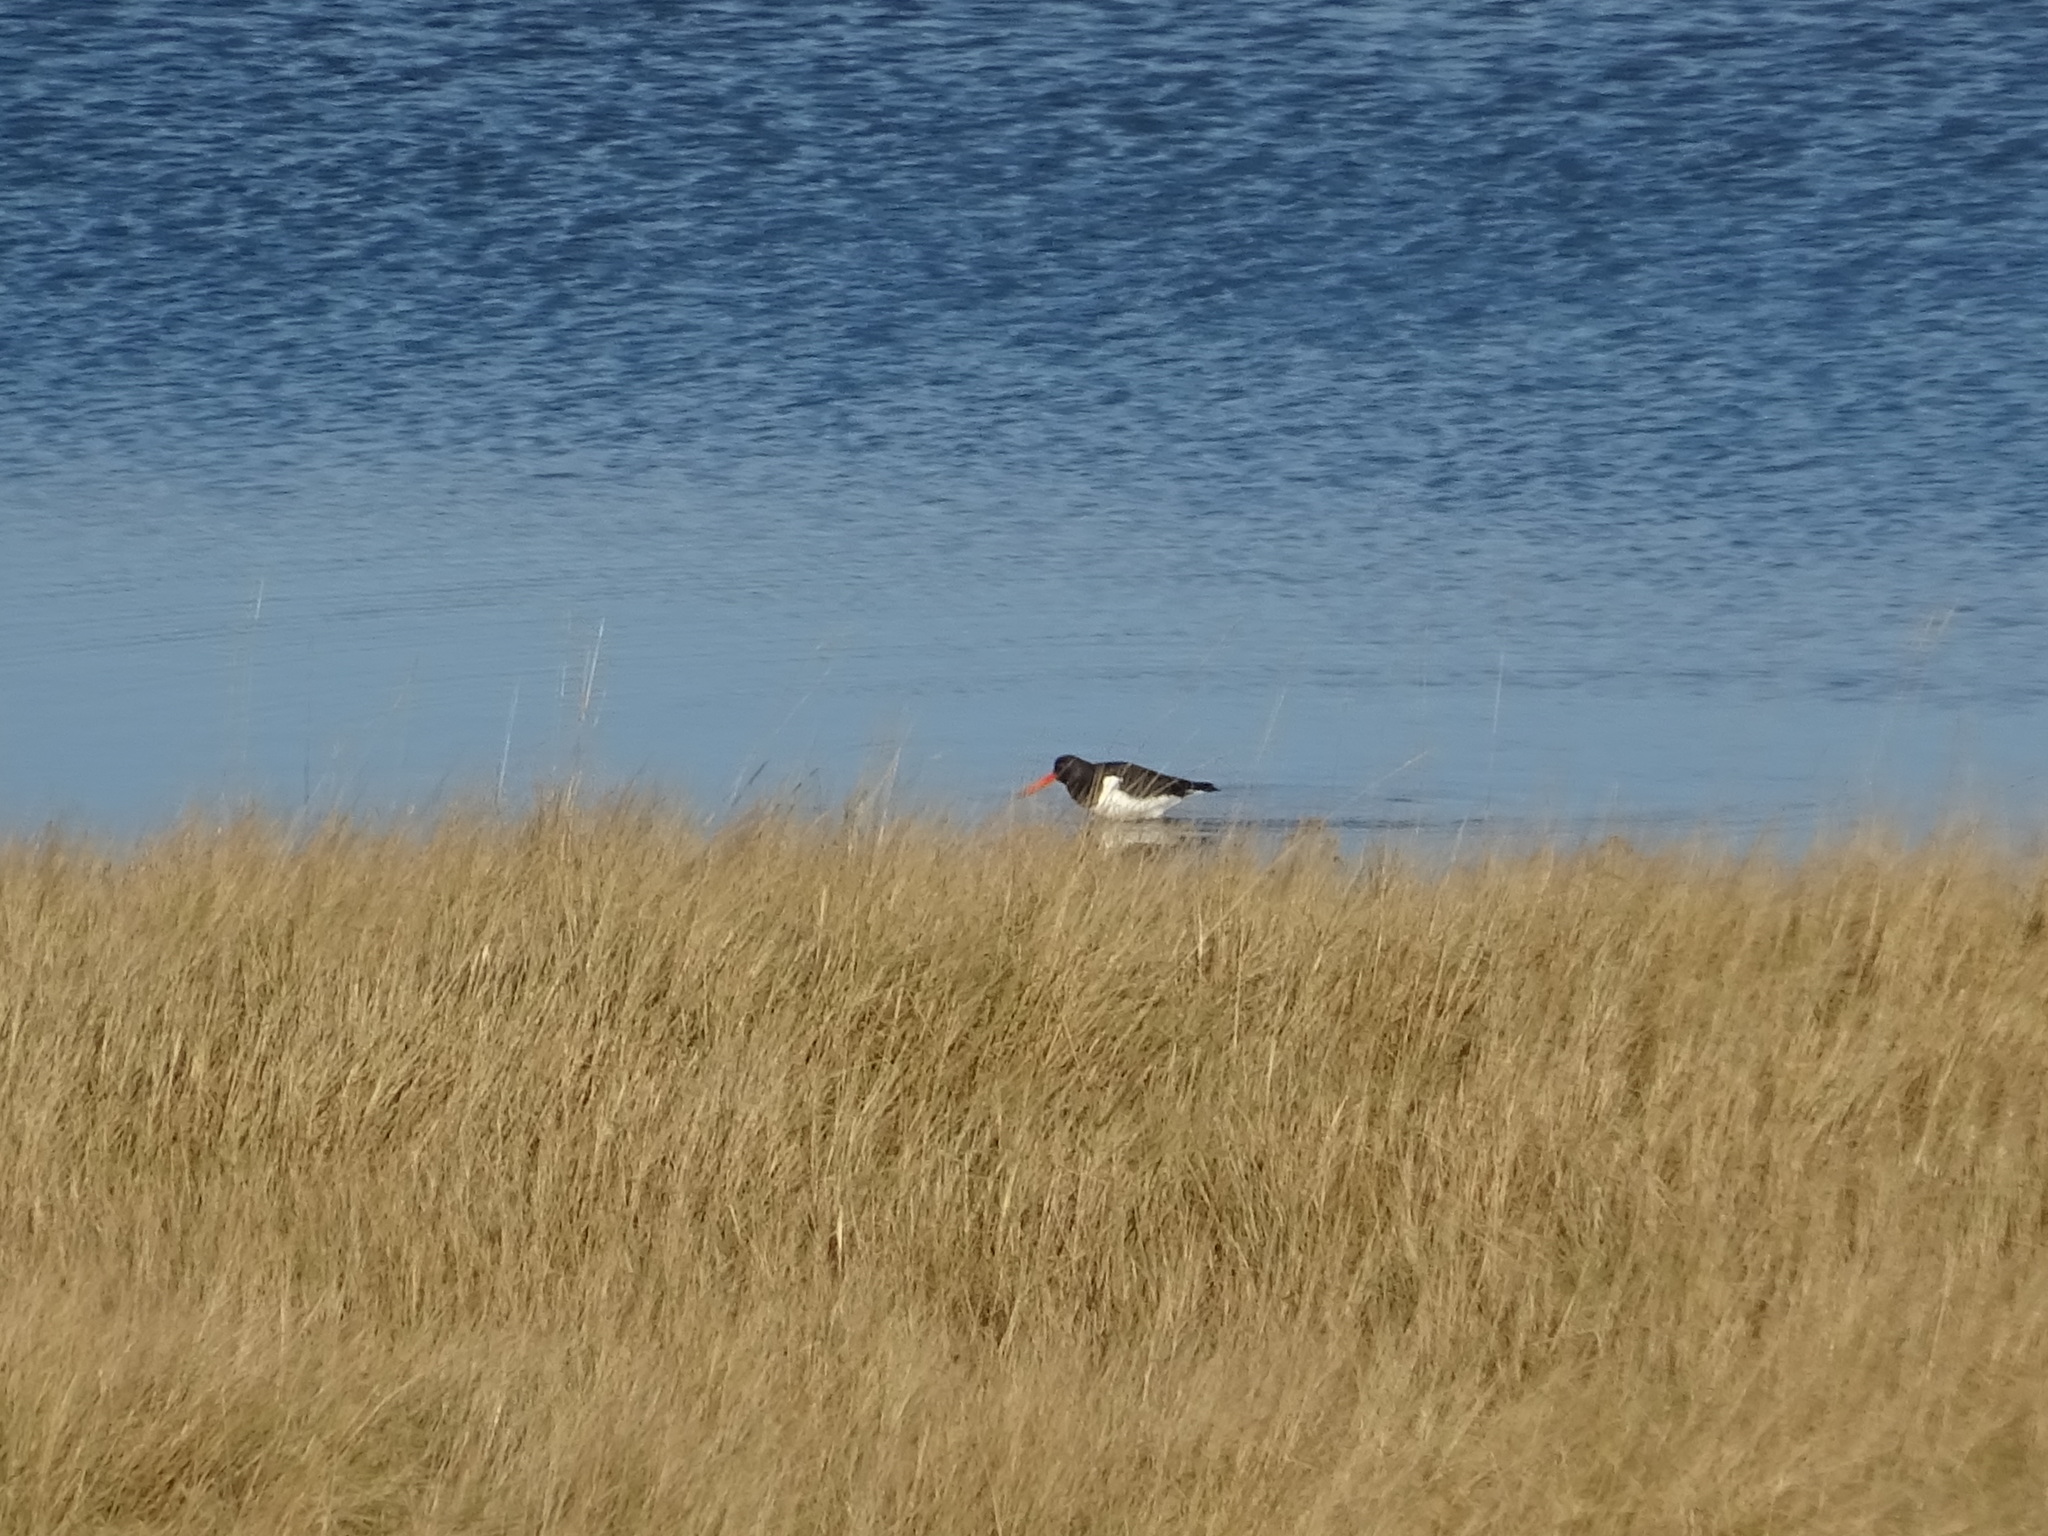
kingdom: Animalia
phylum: Chordata
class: Aves
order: Charadriiformes
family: Haematopodidae
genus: Haematopus
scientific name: Haematopus ostralegus
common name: Eurasian oystercatcher
